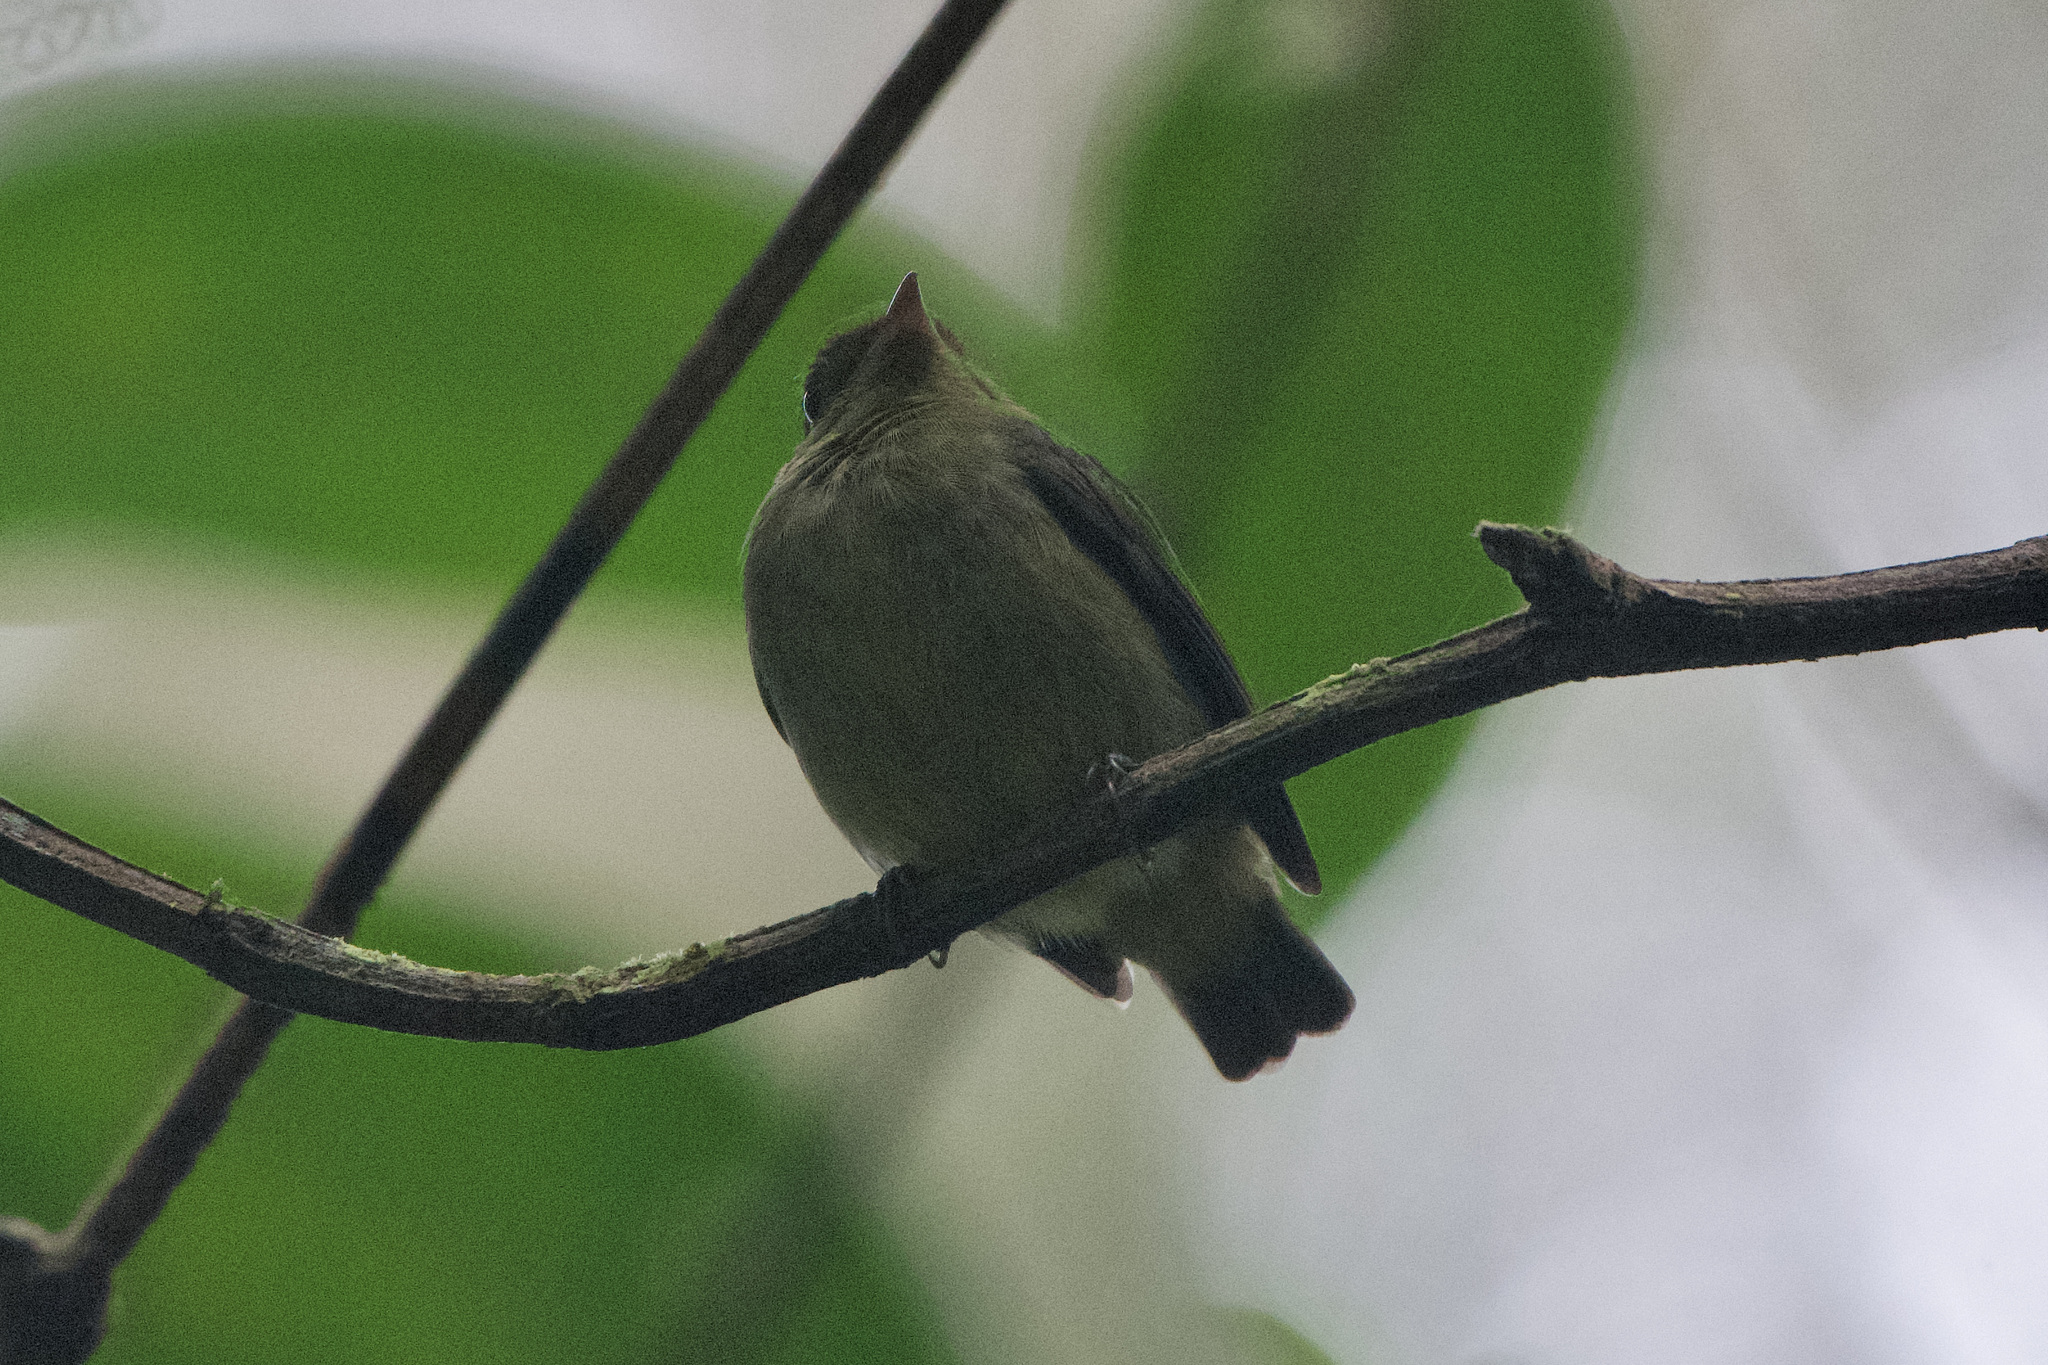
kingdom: Animalia
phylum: Chordata
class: Aves
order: Passeriformes
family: Pipridae
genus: Pipra
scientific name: Pipra mentalis
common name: Red-capped manakin
